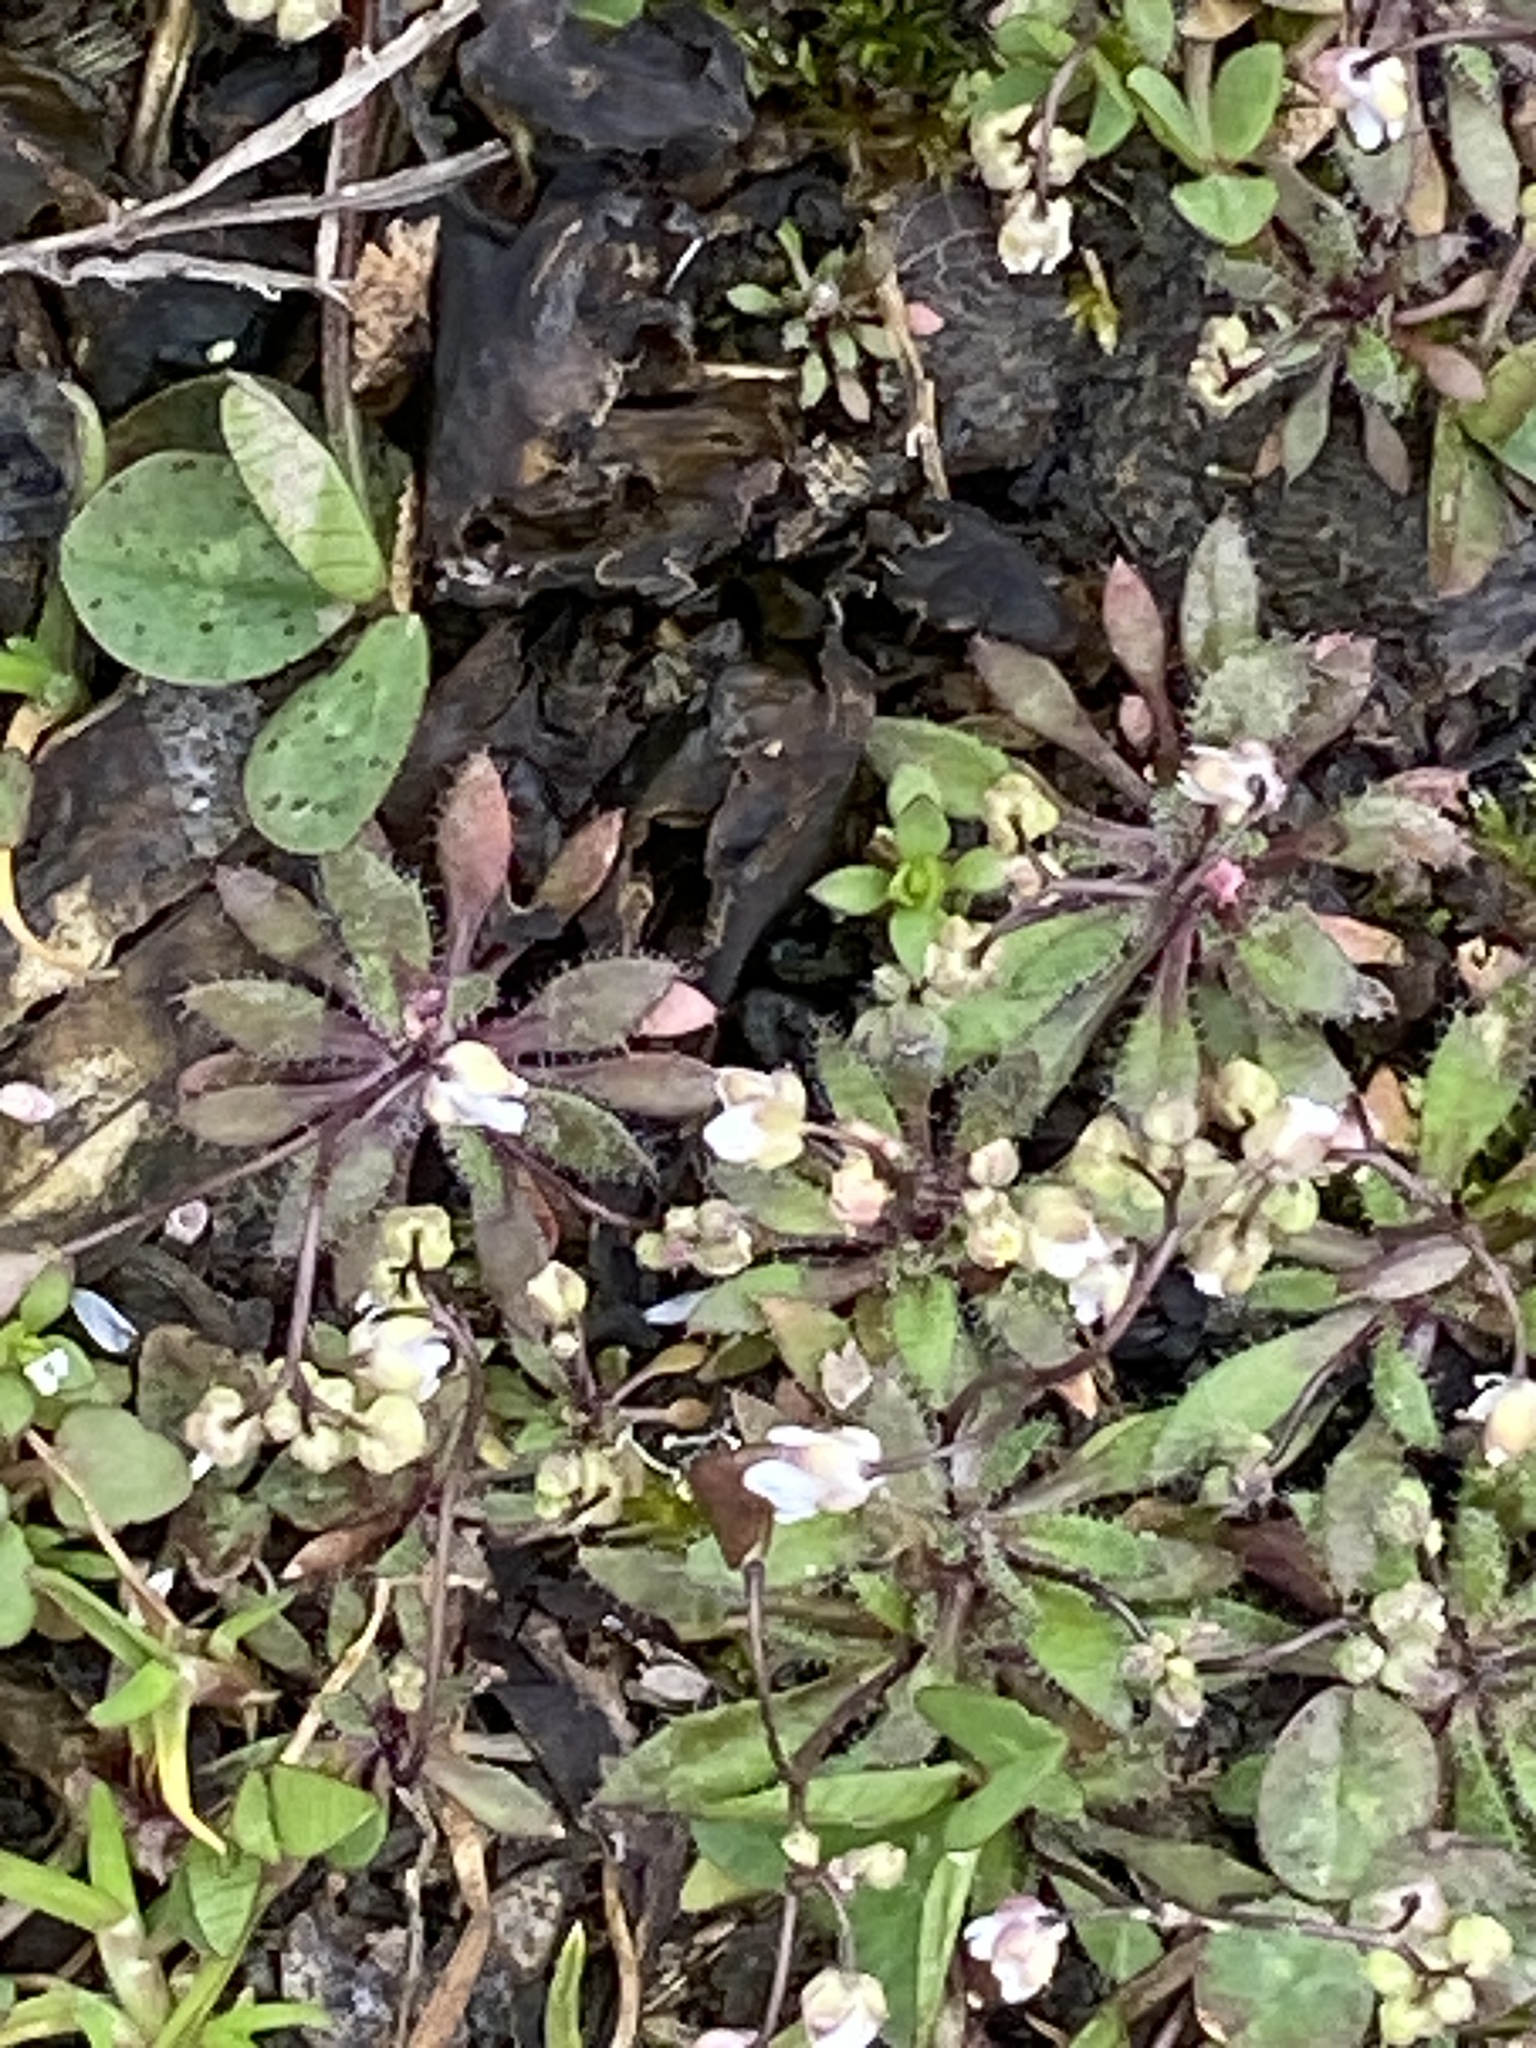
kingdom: Plantae
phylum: Tracheophyta
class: Magnoliopsida
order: Brassicales
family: Brassicaceae
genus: Draba
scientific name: Draba verna
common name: Spring draba
